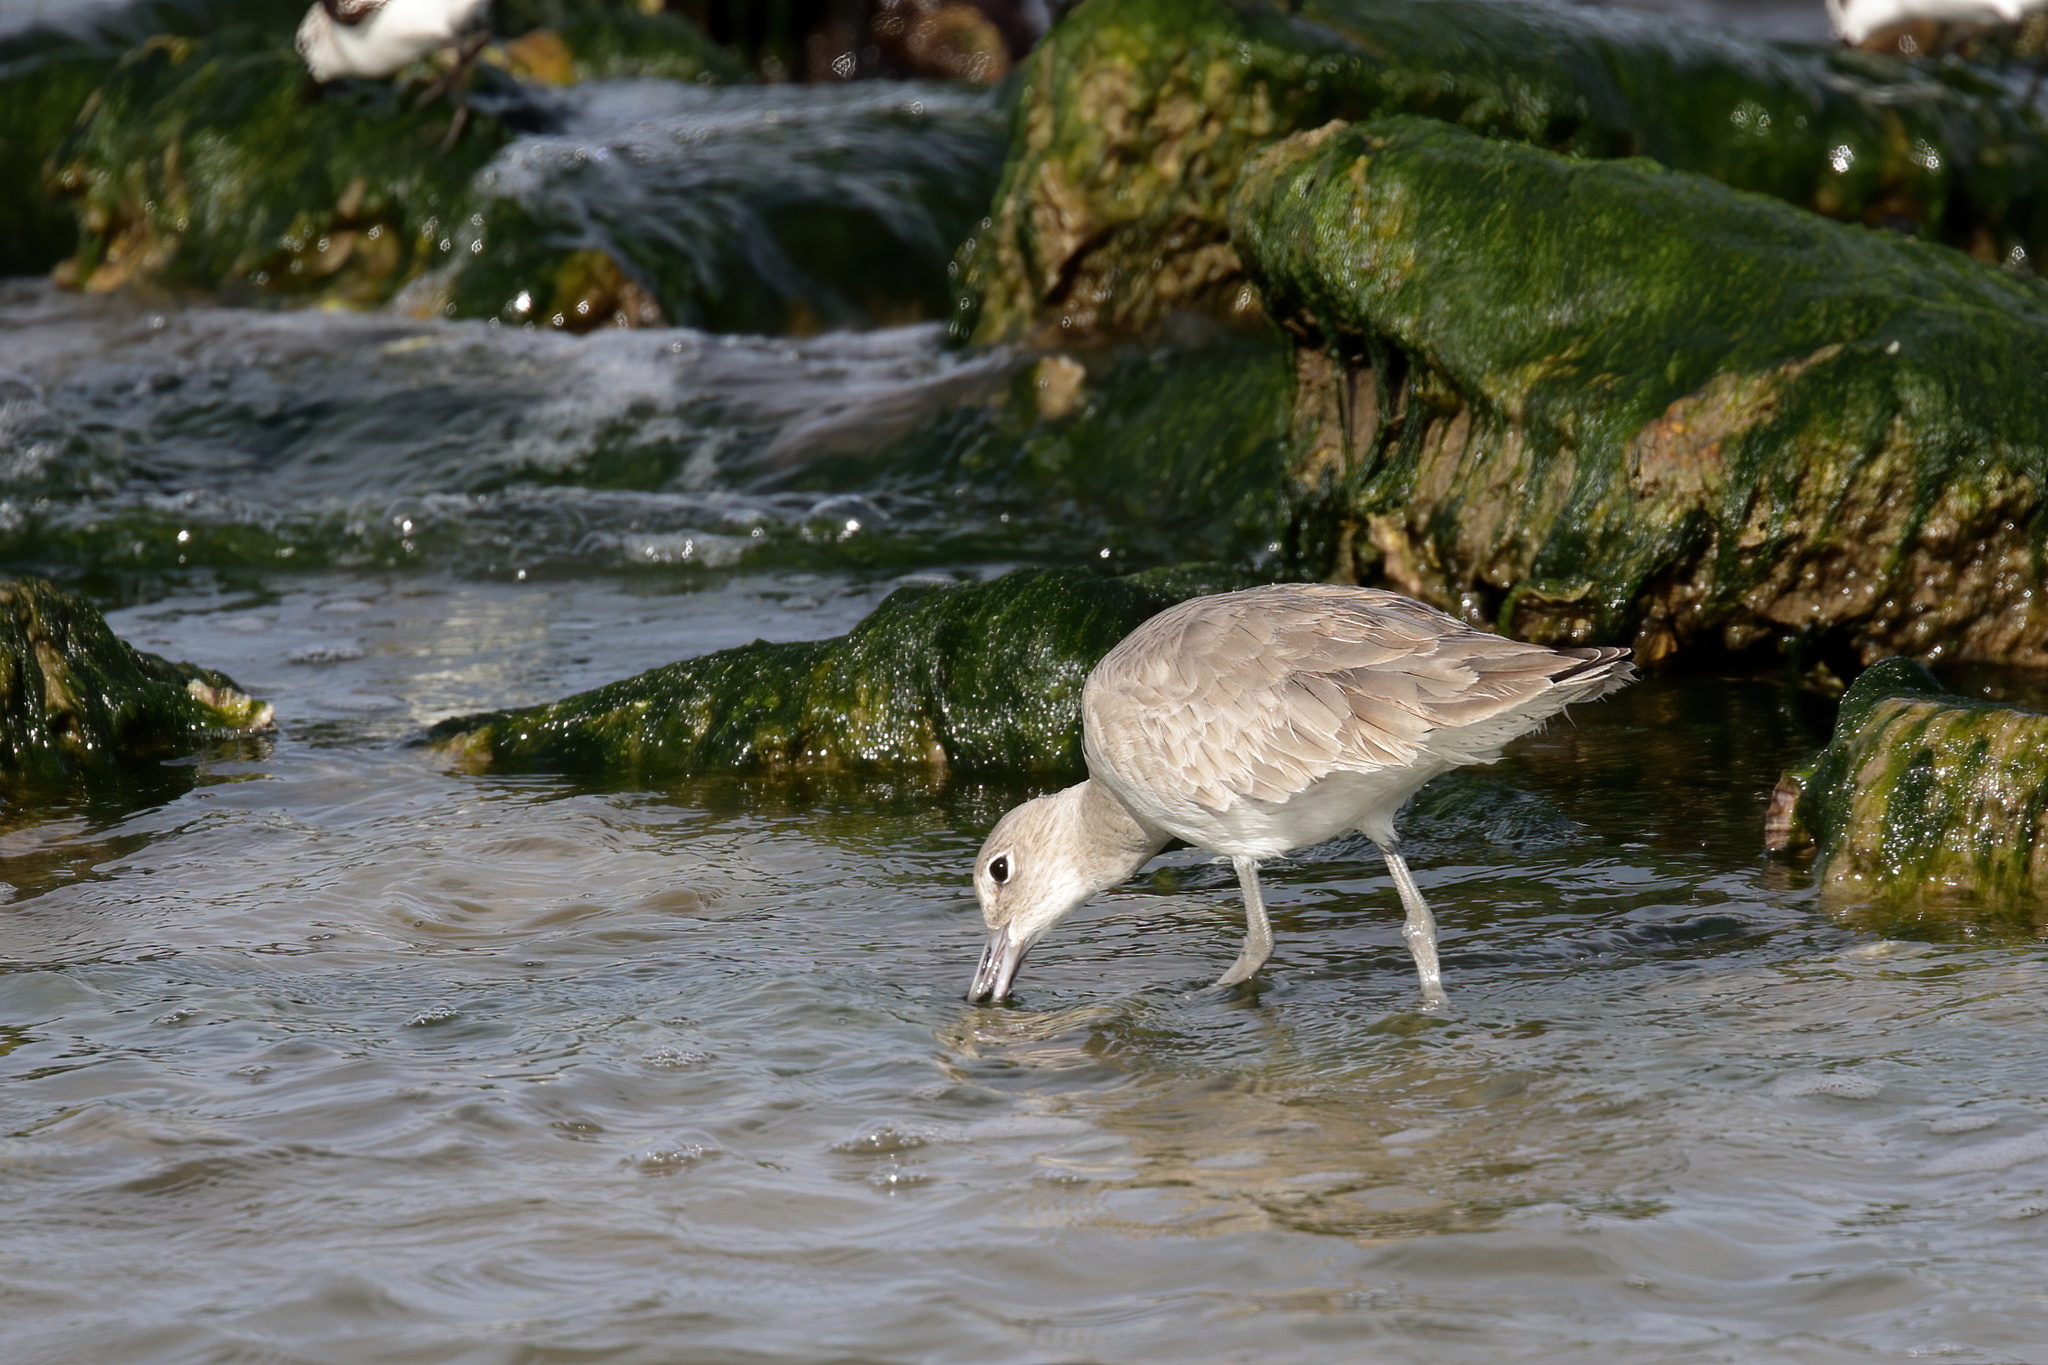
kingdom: Animalia
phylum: Chordata
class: Aves
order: Charadriiformes
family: Scolopacidae
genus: Tringa
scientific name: Tringa semipalmata
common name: Willet
